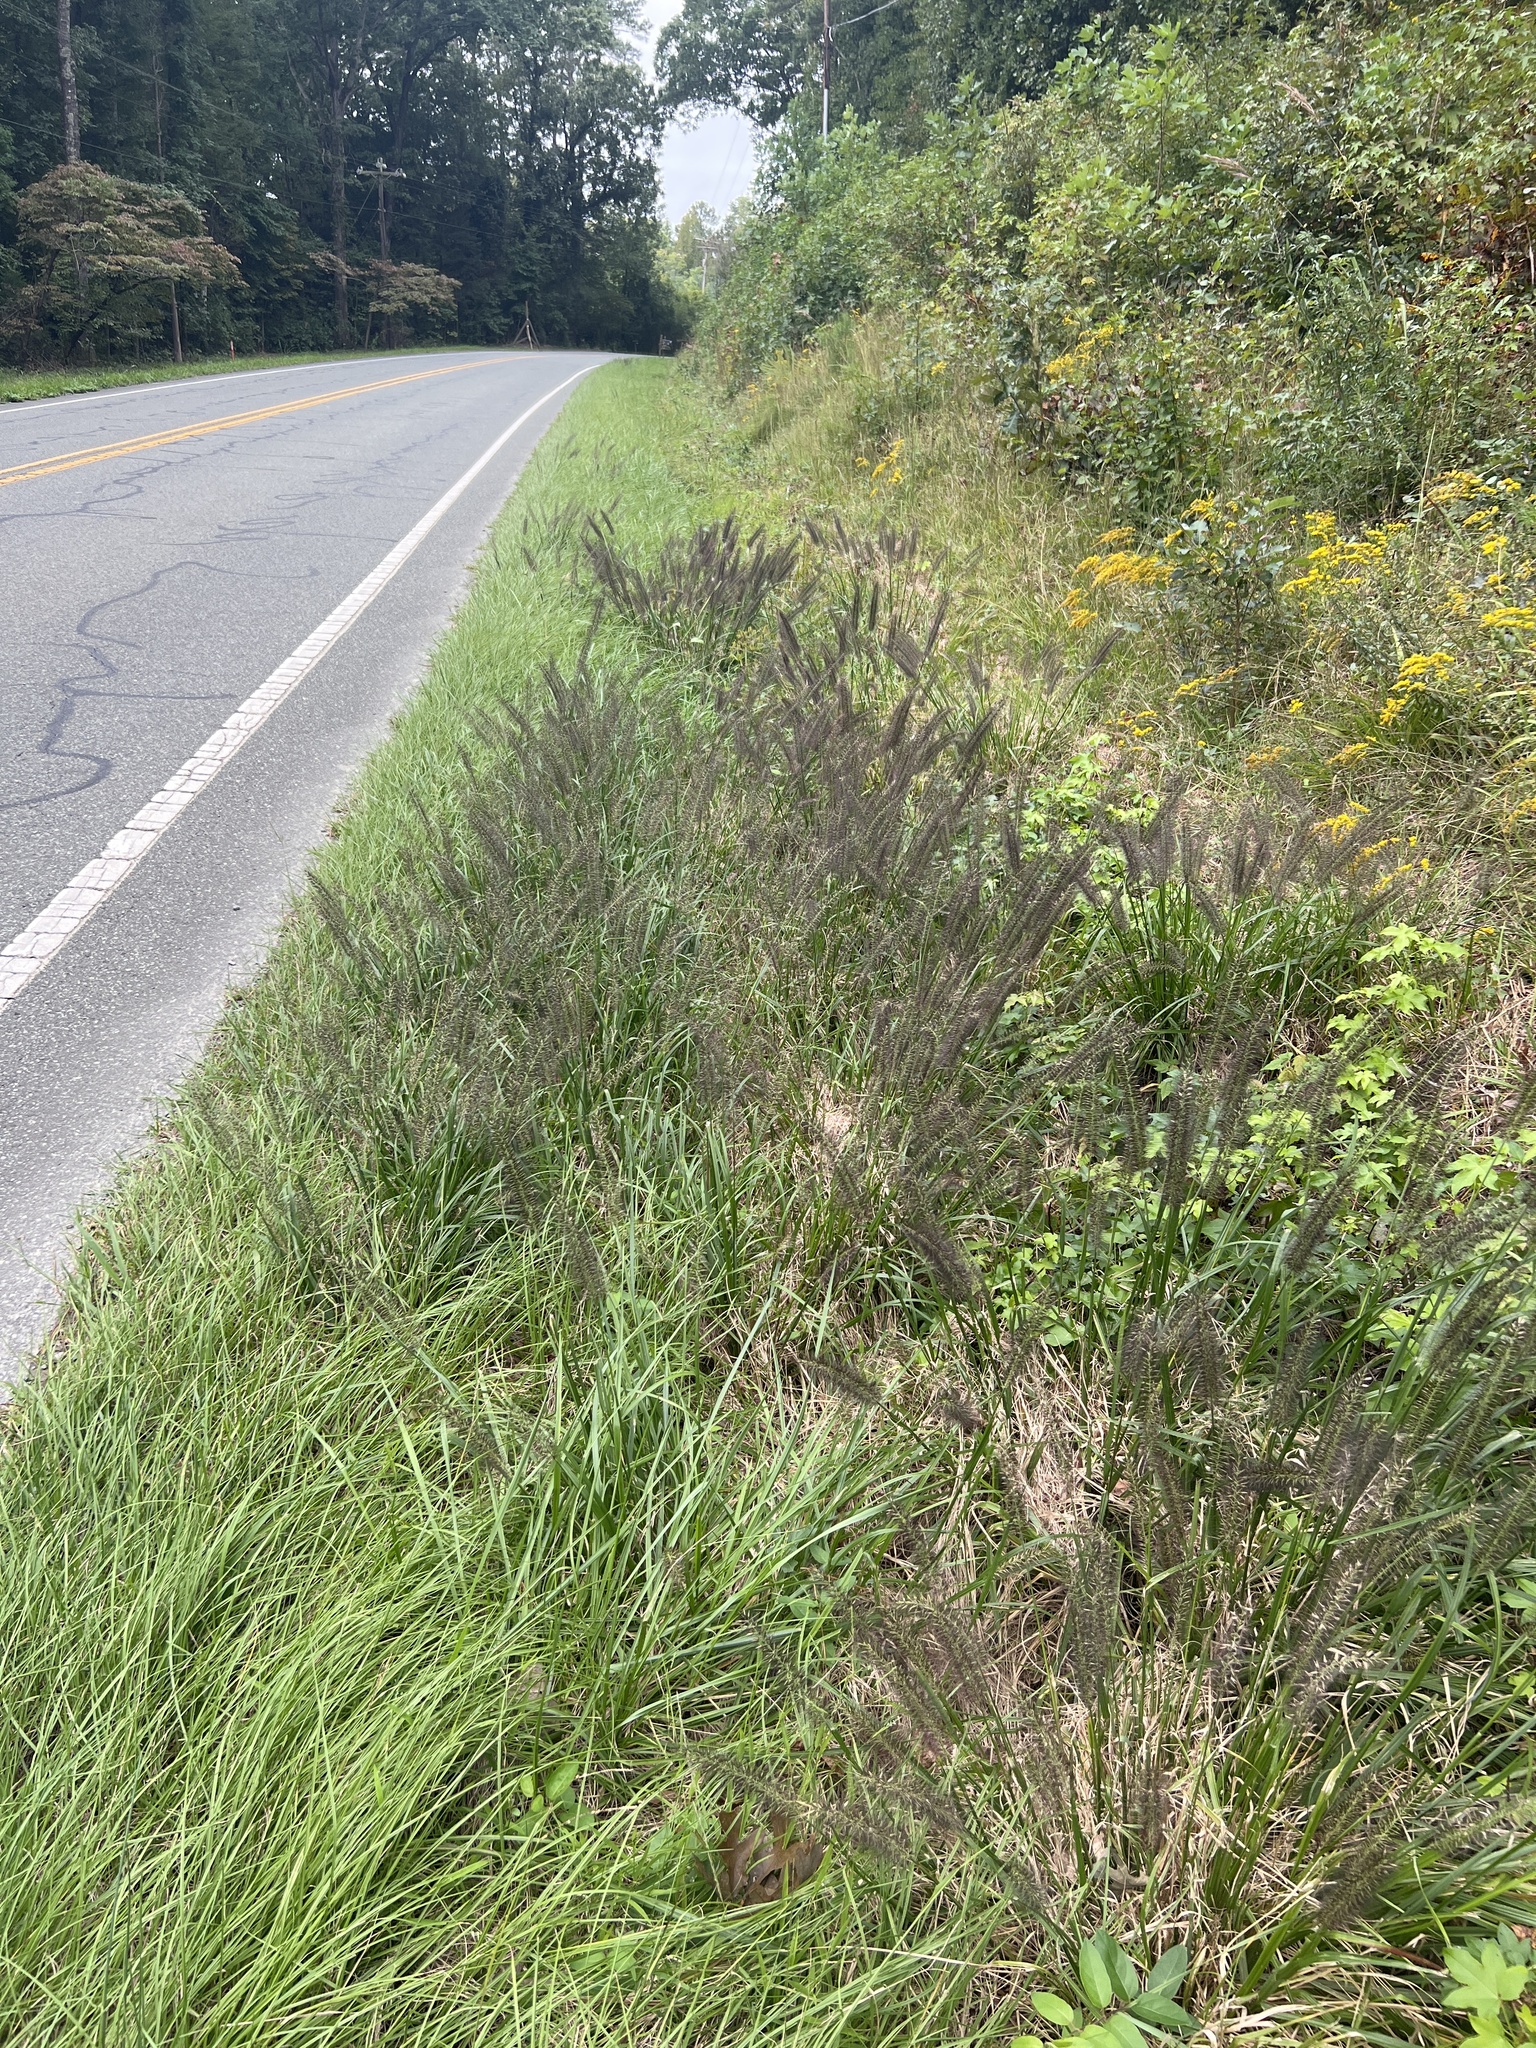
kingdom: Plantae
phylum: Tracheophyta
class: Liliopsida
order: Poales
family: Poaceae
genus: Cenchrus
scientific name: Cenchrus alopecuroides
